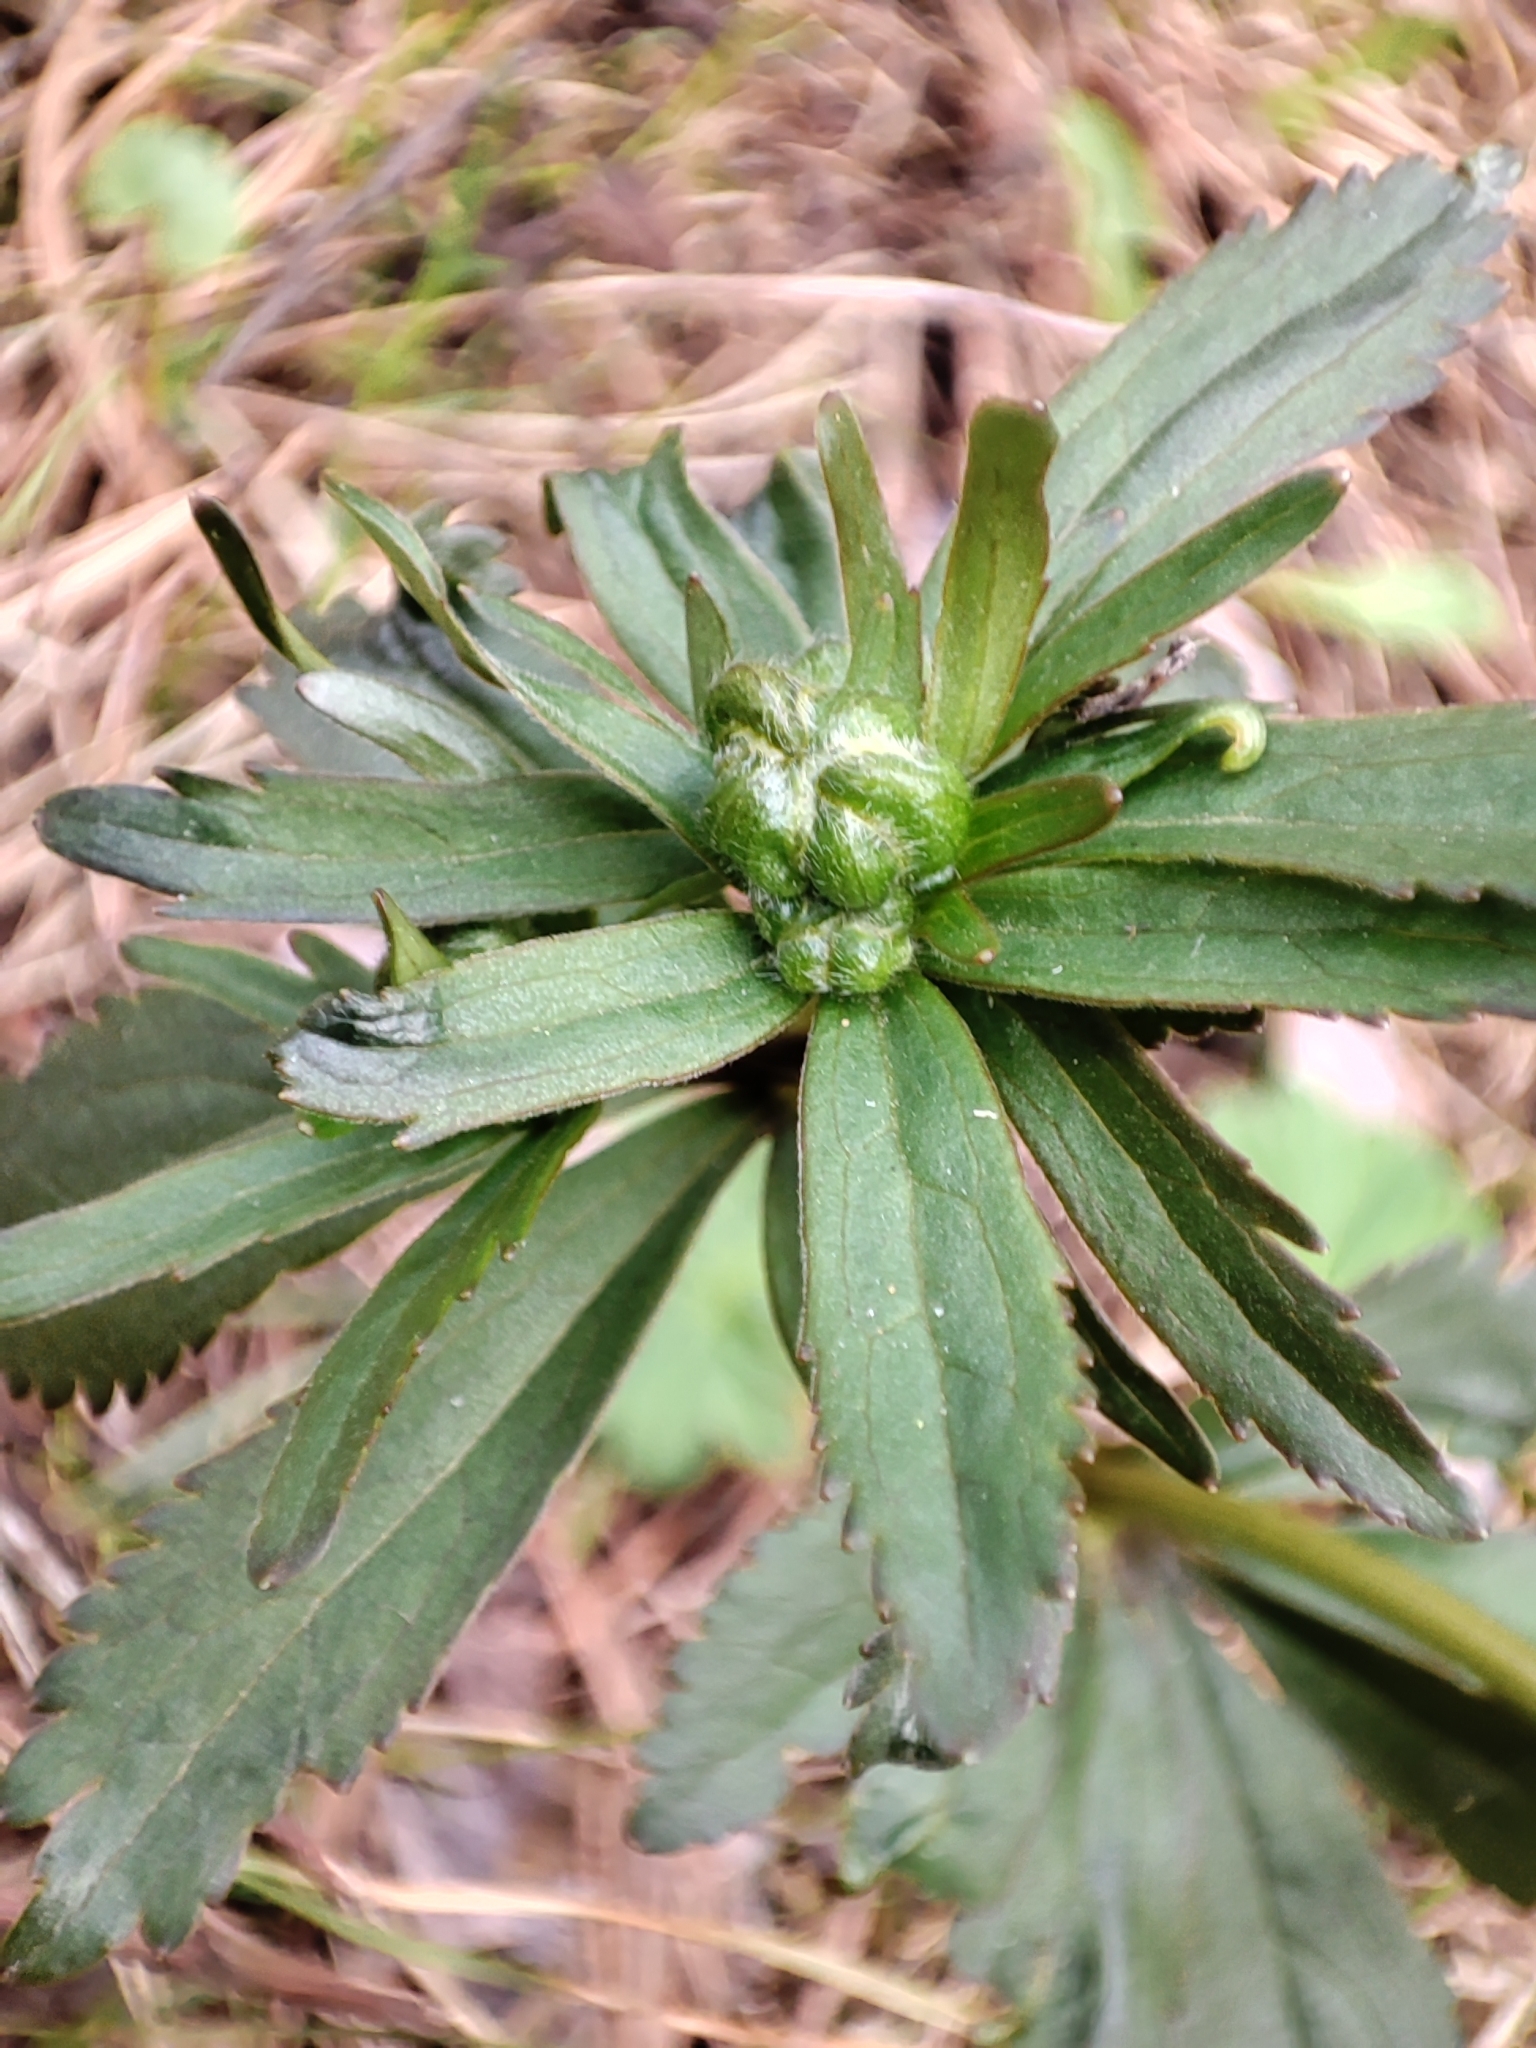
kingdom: Plantae
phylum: Tracheophyta
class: Magnoliopsida
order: Ranunculales
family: Ranunculaceae
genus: Ranunculus
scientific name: Ranunculus cassubicus
